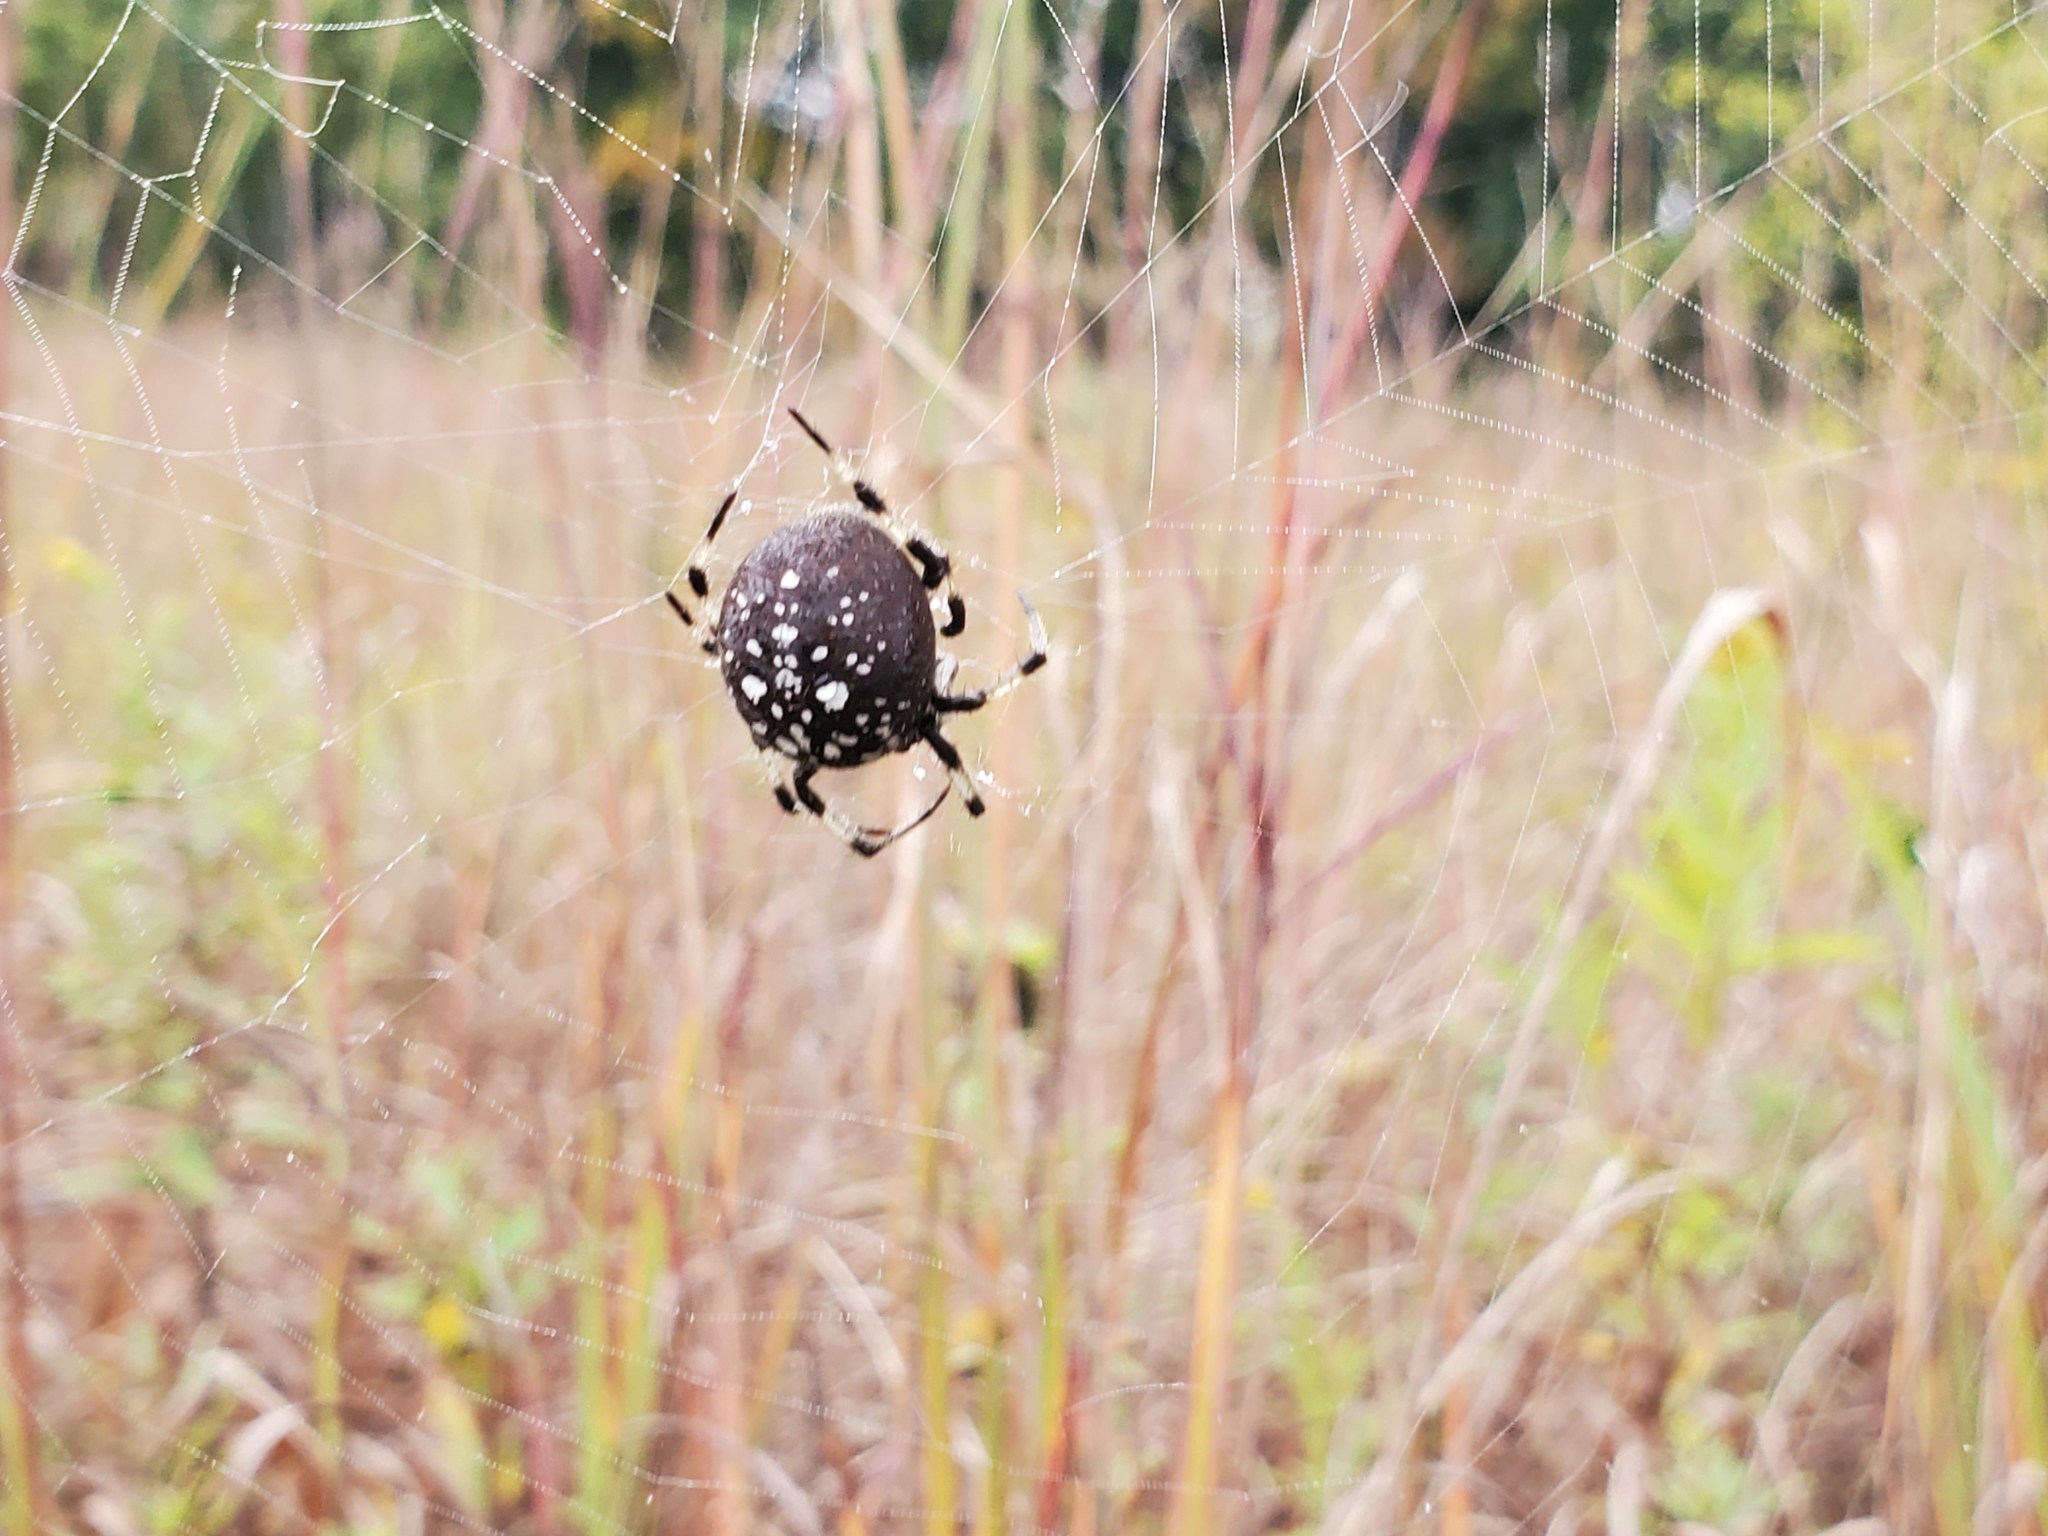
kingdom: Animalia
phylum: Arthropoda
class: Arachnida
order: Araneae
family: Araneidae
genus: Araneus
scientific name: Araneus trifolium
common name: Shamrock orbweaver
